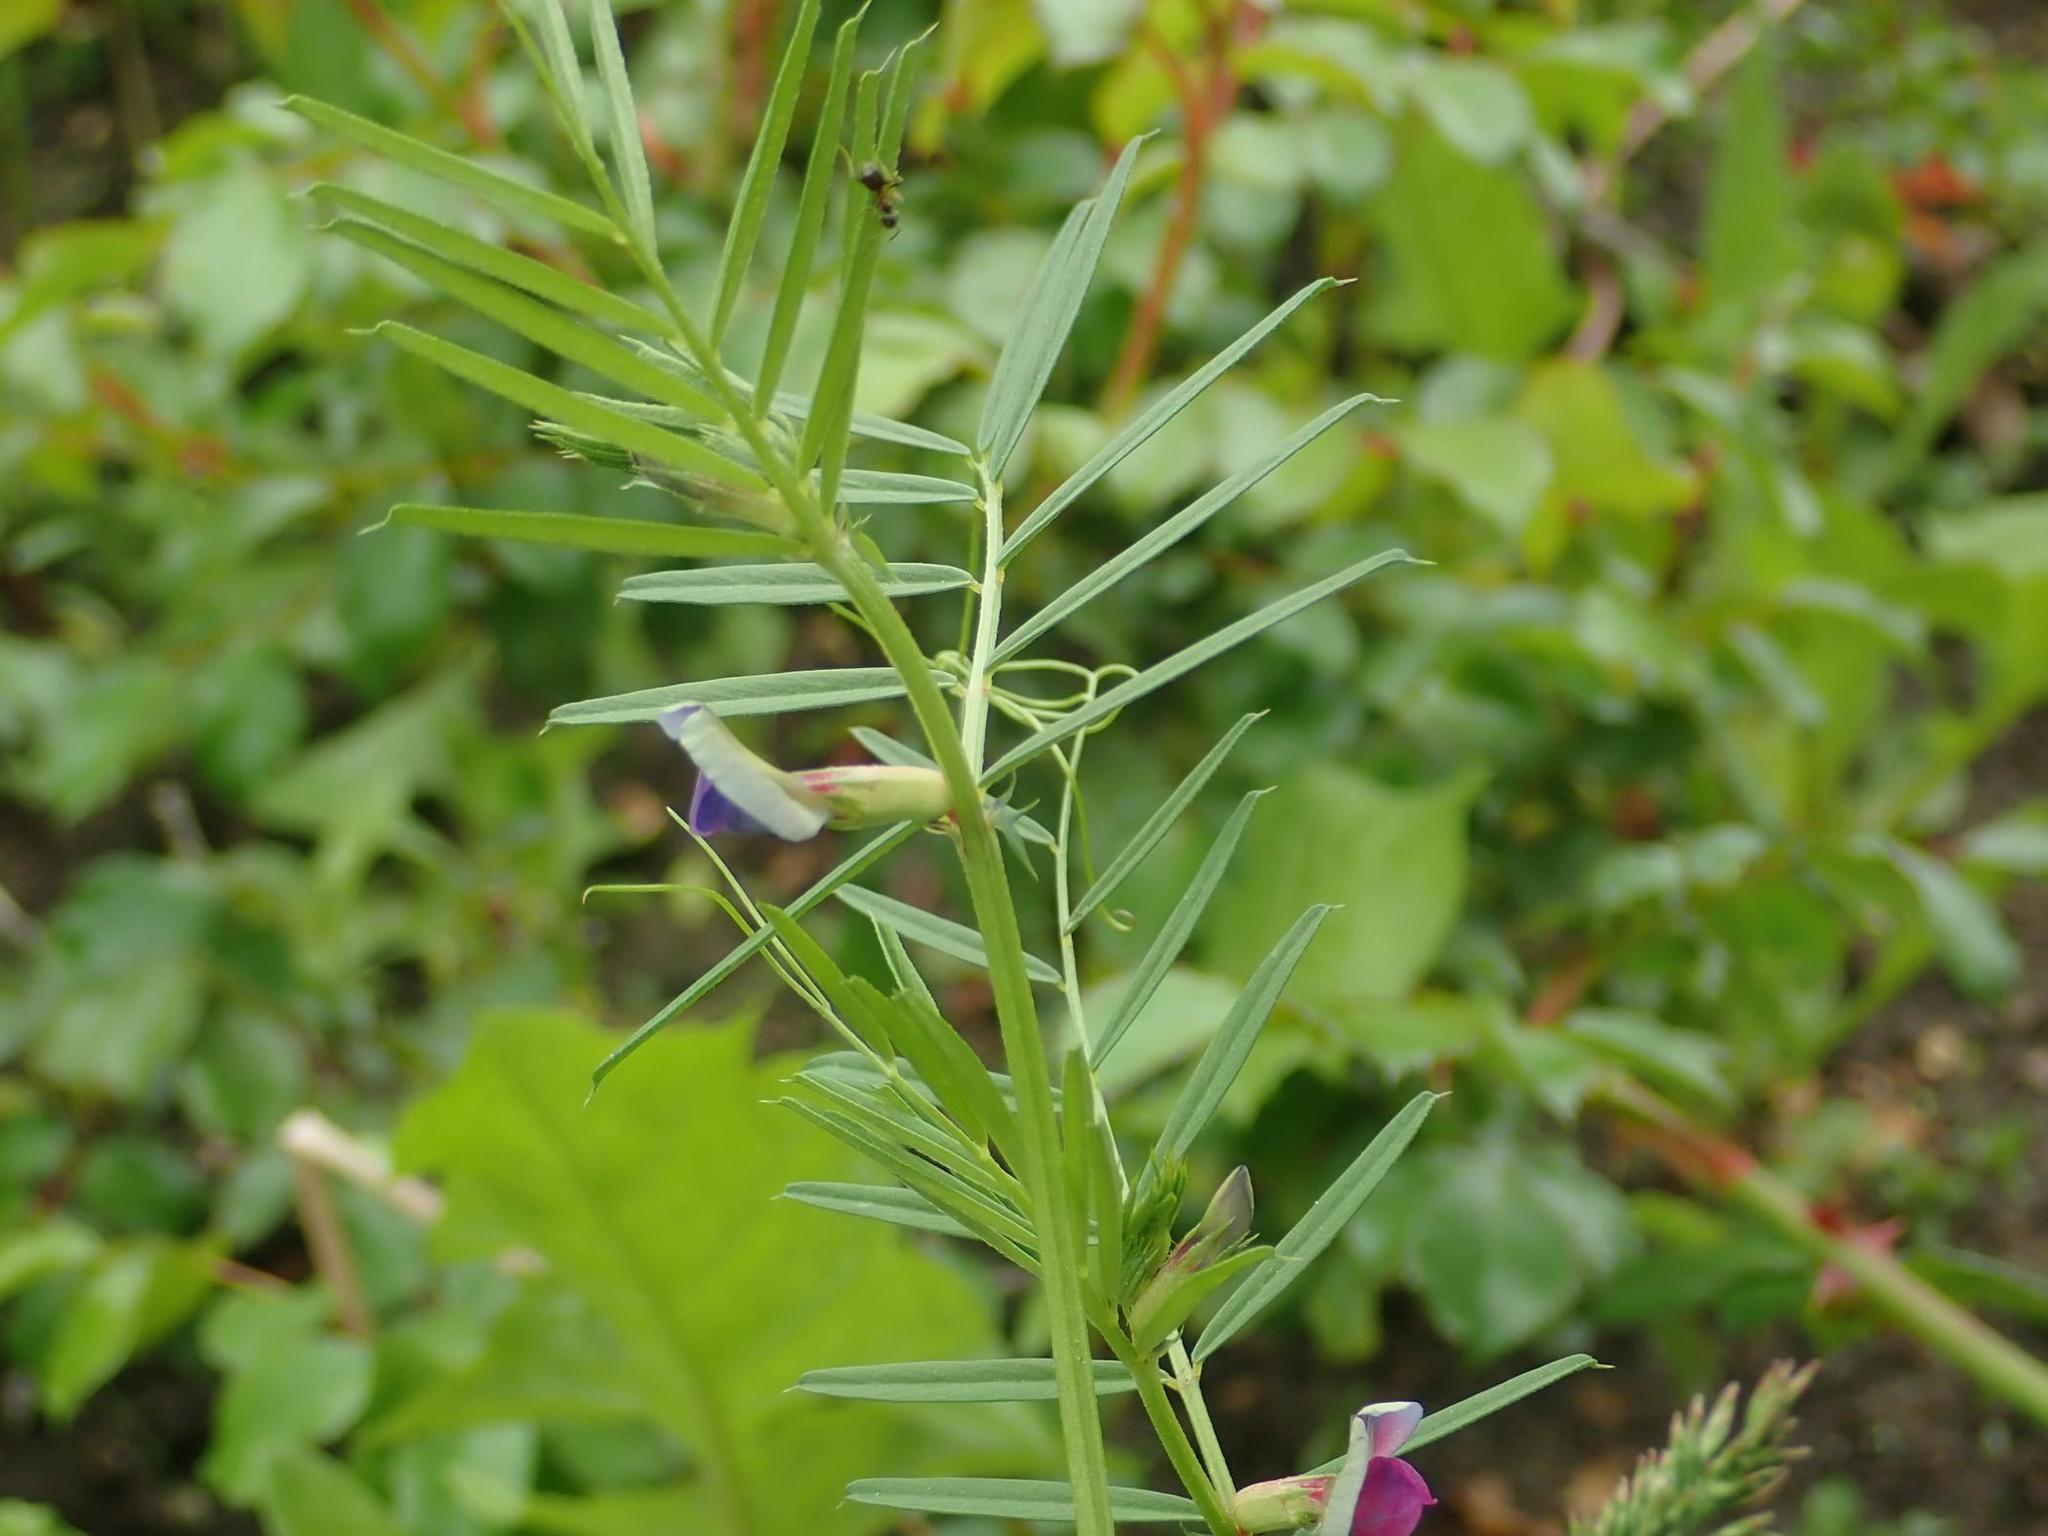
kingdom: Plantae
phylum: Tracheophyta
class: Magnoliopsida
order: Fabales
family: Fabaceae
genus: Vicia
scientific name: Vicia sativa
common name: Garden vetch
